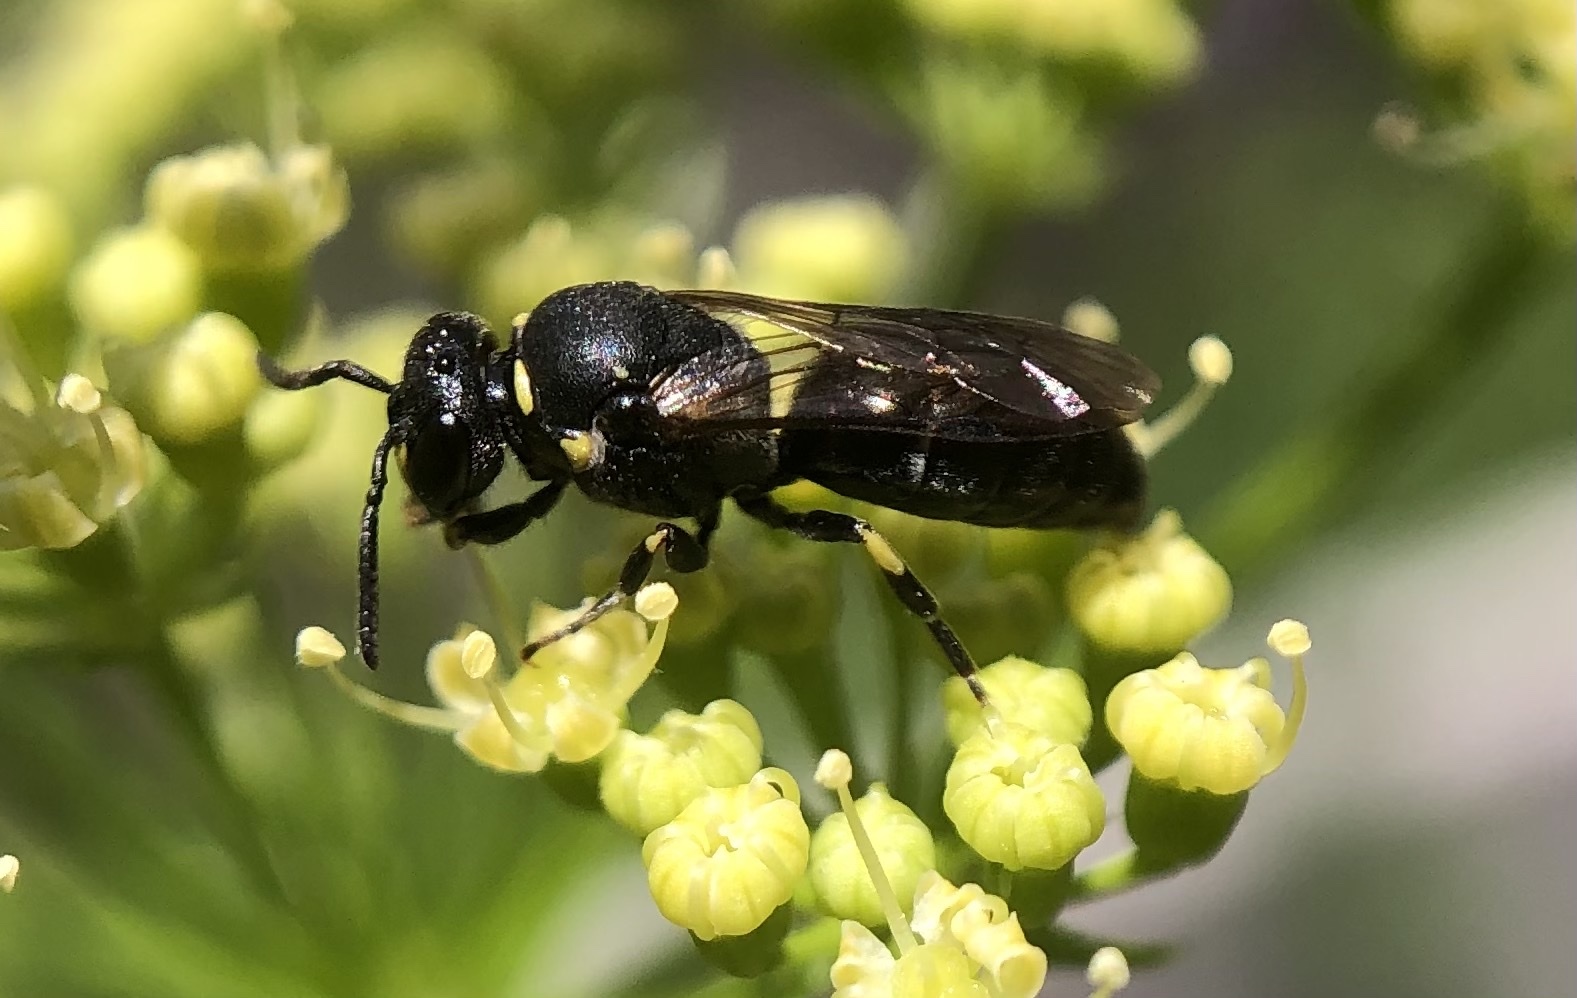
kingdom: Animalia
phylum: Arthropoda
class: Insecta
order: Hymenoptera
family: Colletidae
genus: Hylaeus
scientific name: Hylaeus modestus
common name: Yellow-faced bee
